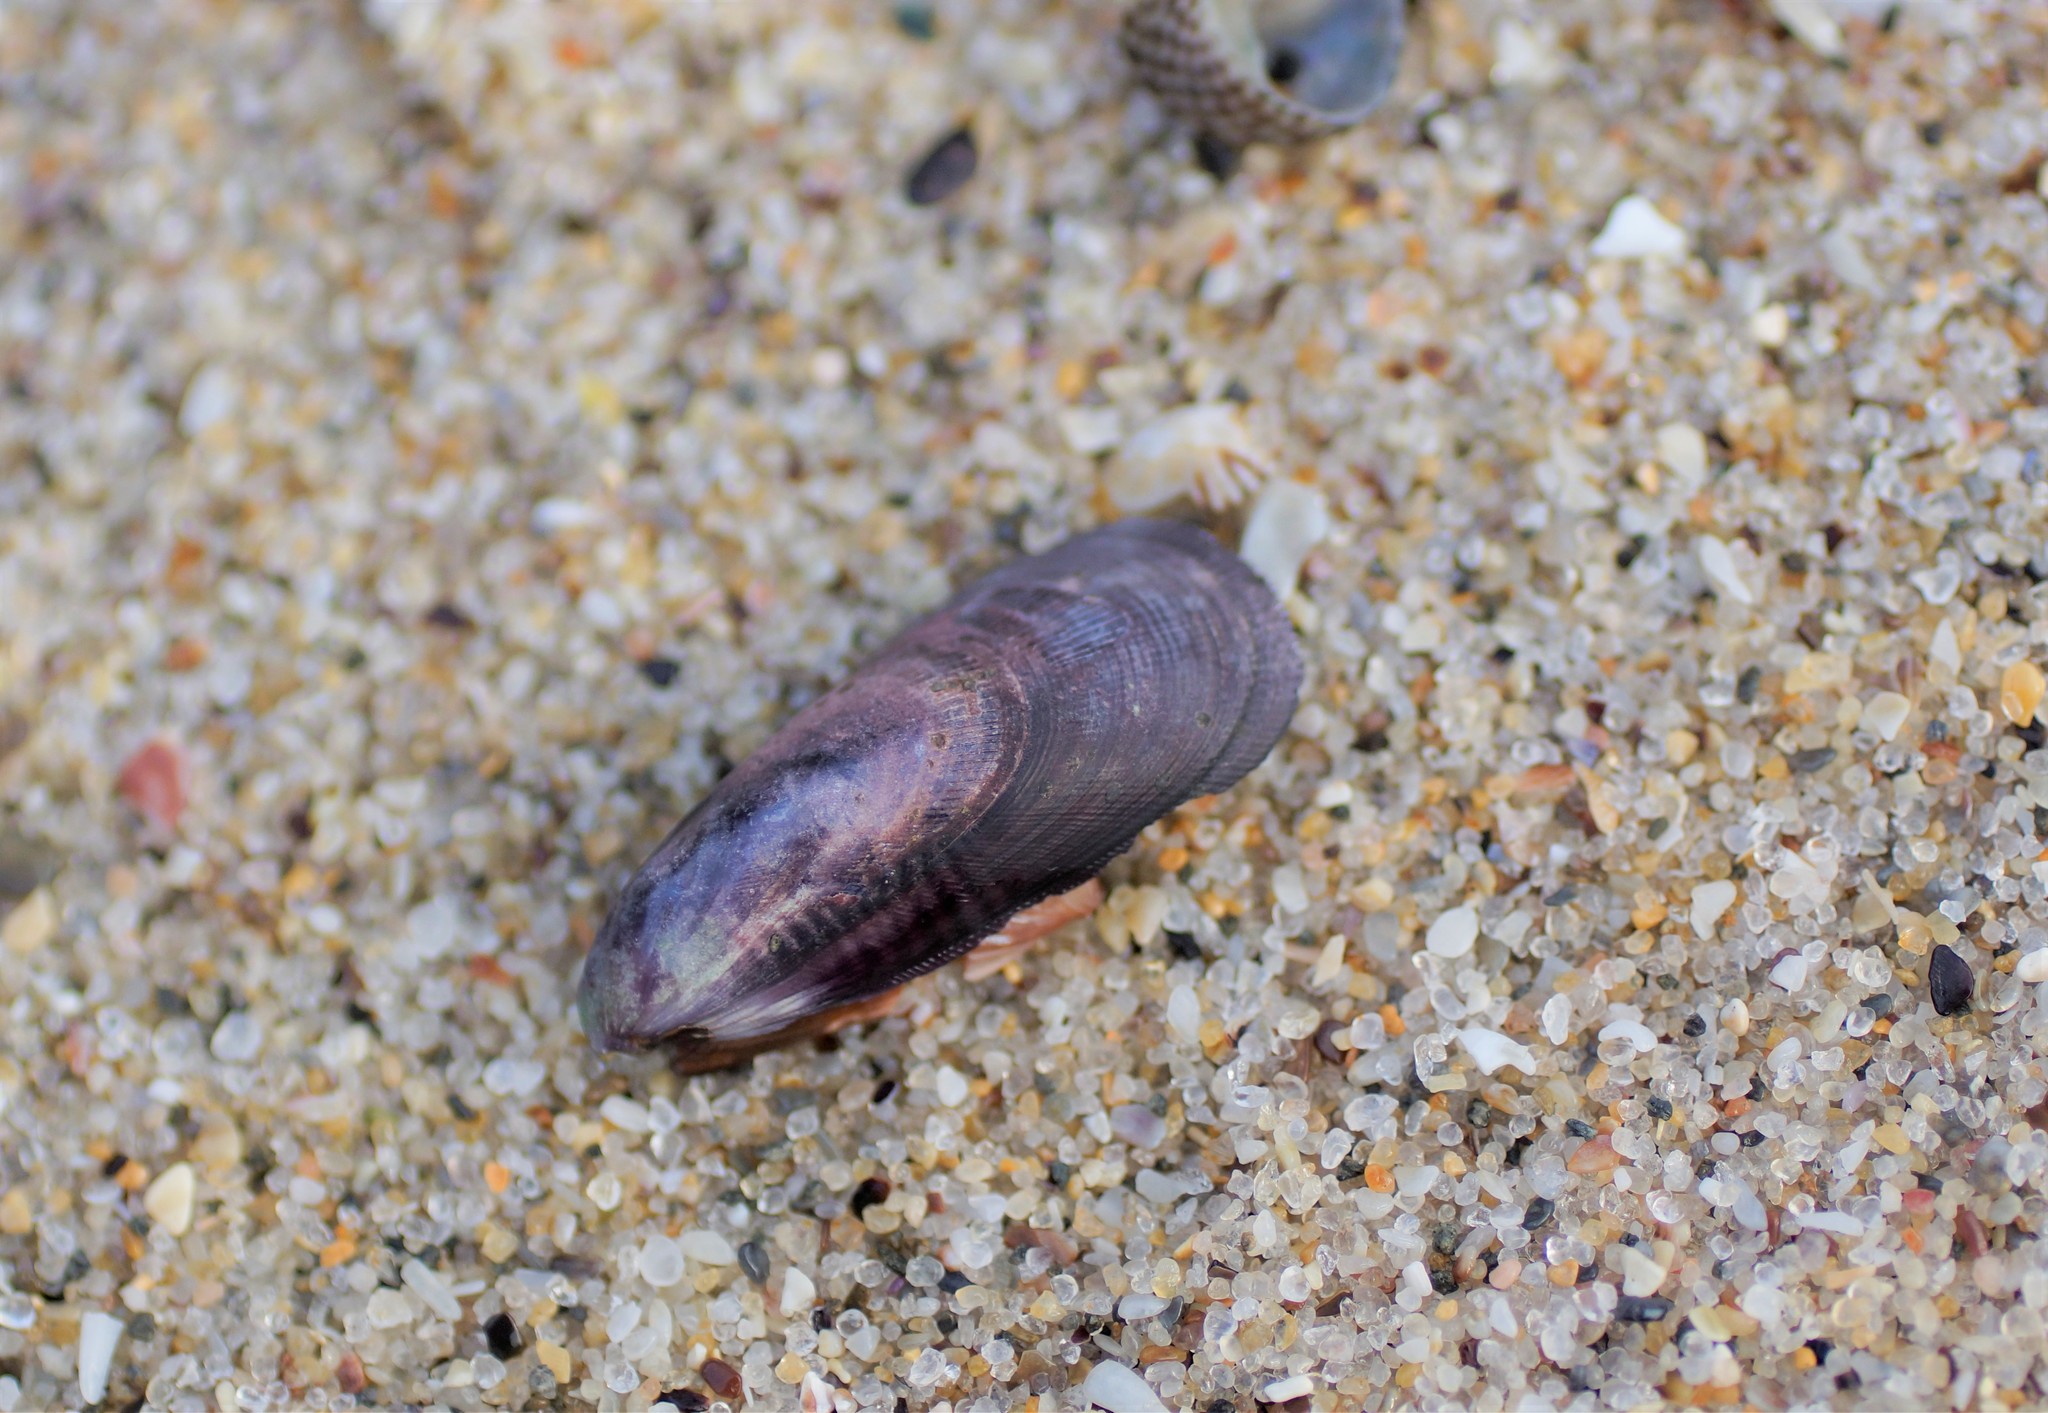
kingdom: Animalia
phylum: Mollusca
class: Bivalvia
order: Mytilida
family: Mytilidae
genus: Brachidontes
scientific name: Brachidontes rostratus
